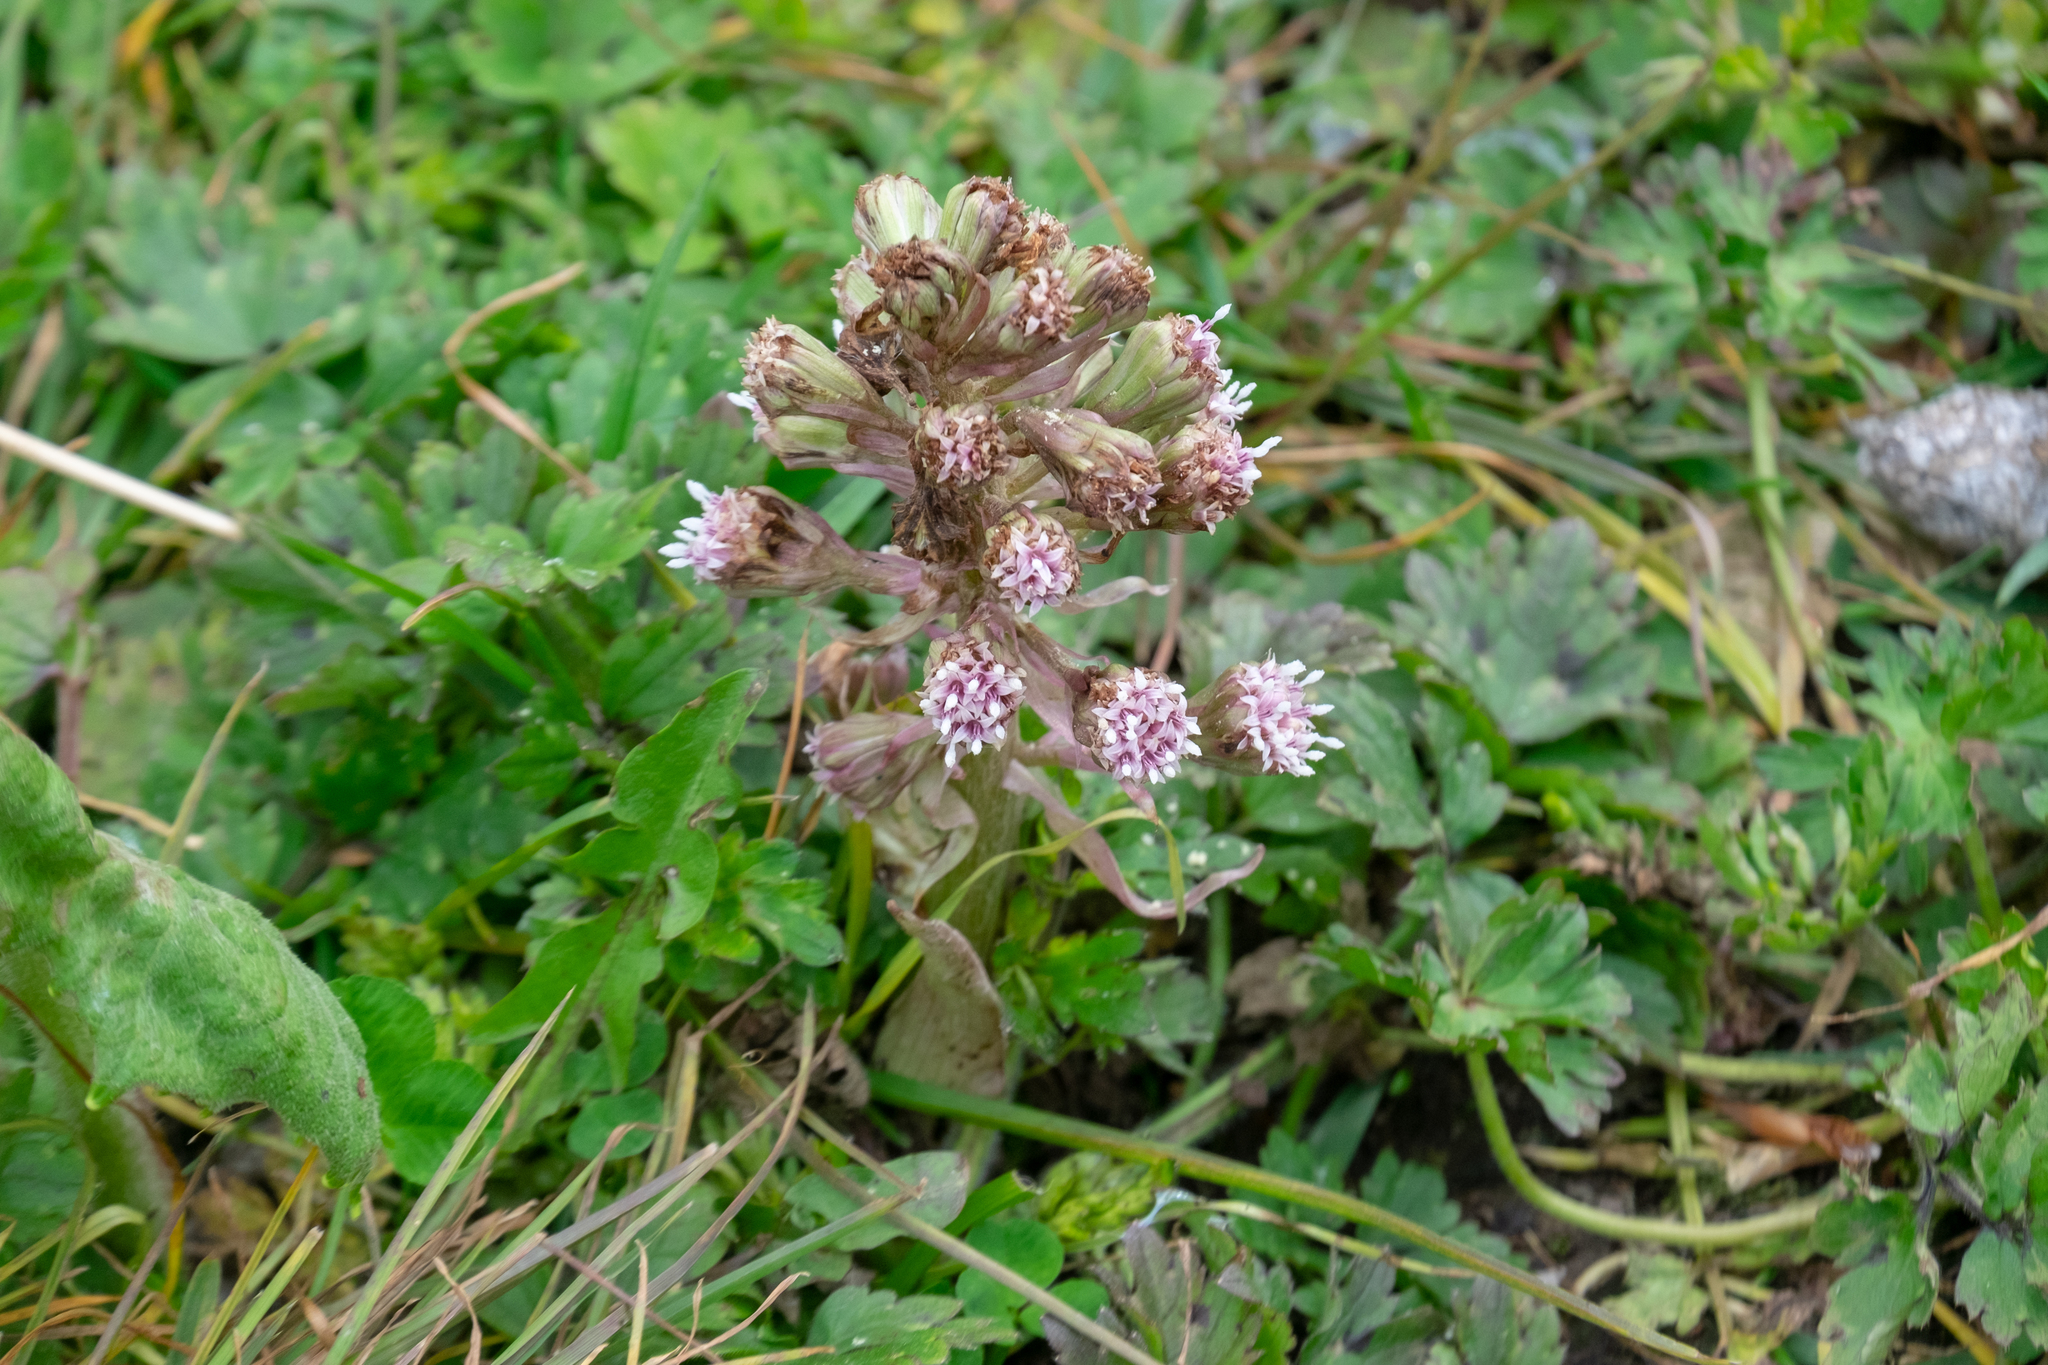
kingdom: Plantae
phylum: Tracheophyta
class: Magnoliopsida
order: Asterales
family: Asteraceae
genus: Petasites
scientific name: Petasites hybridus
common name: Butterbur
